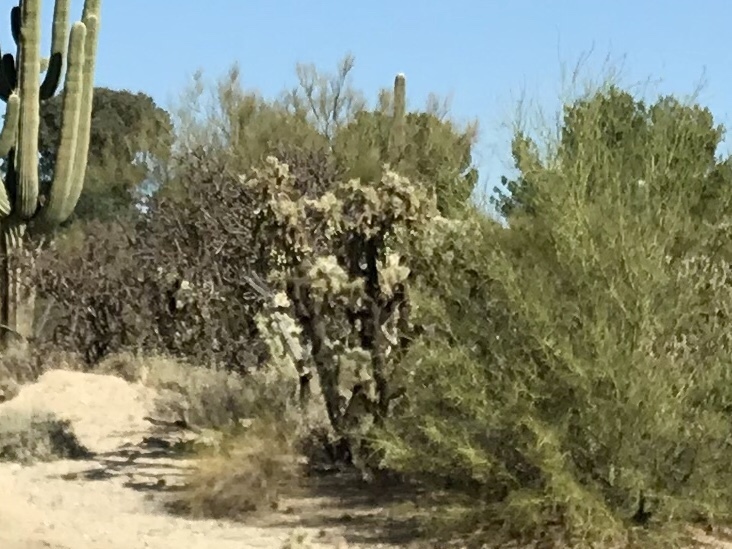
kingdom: Plantae
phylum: Tracheophyta
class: Magnoliopsida
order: Caryophyllales
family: Cactaceae
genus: Cylindropuntia
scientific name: Cylindropuntia fulgida
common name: Jumping cholla
